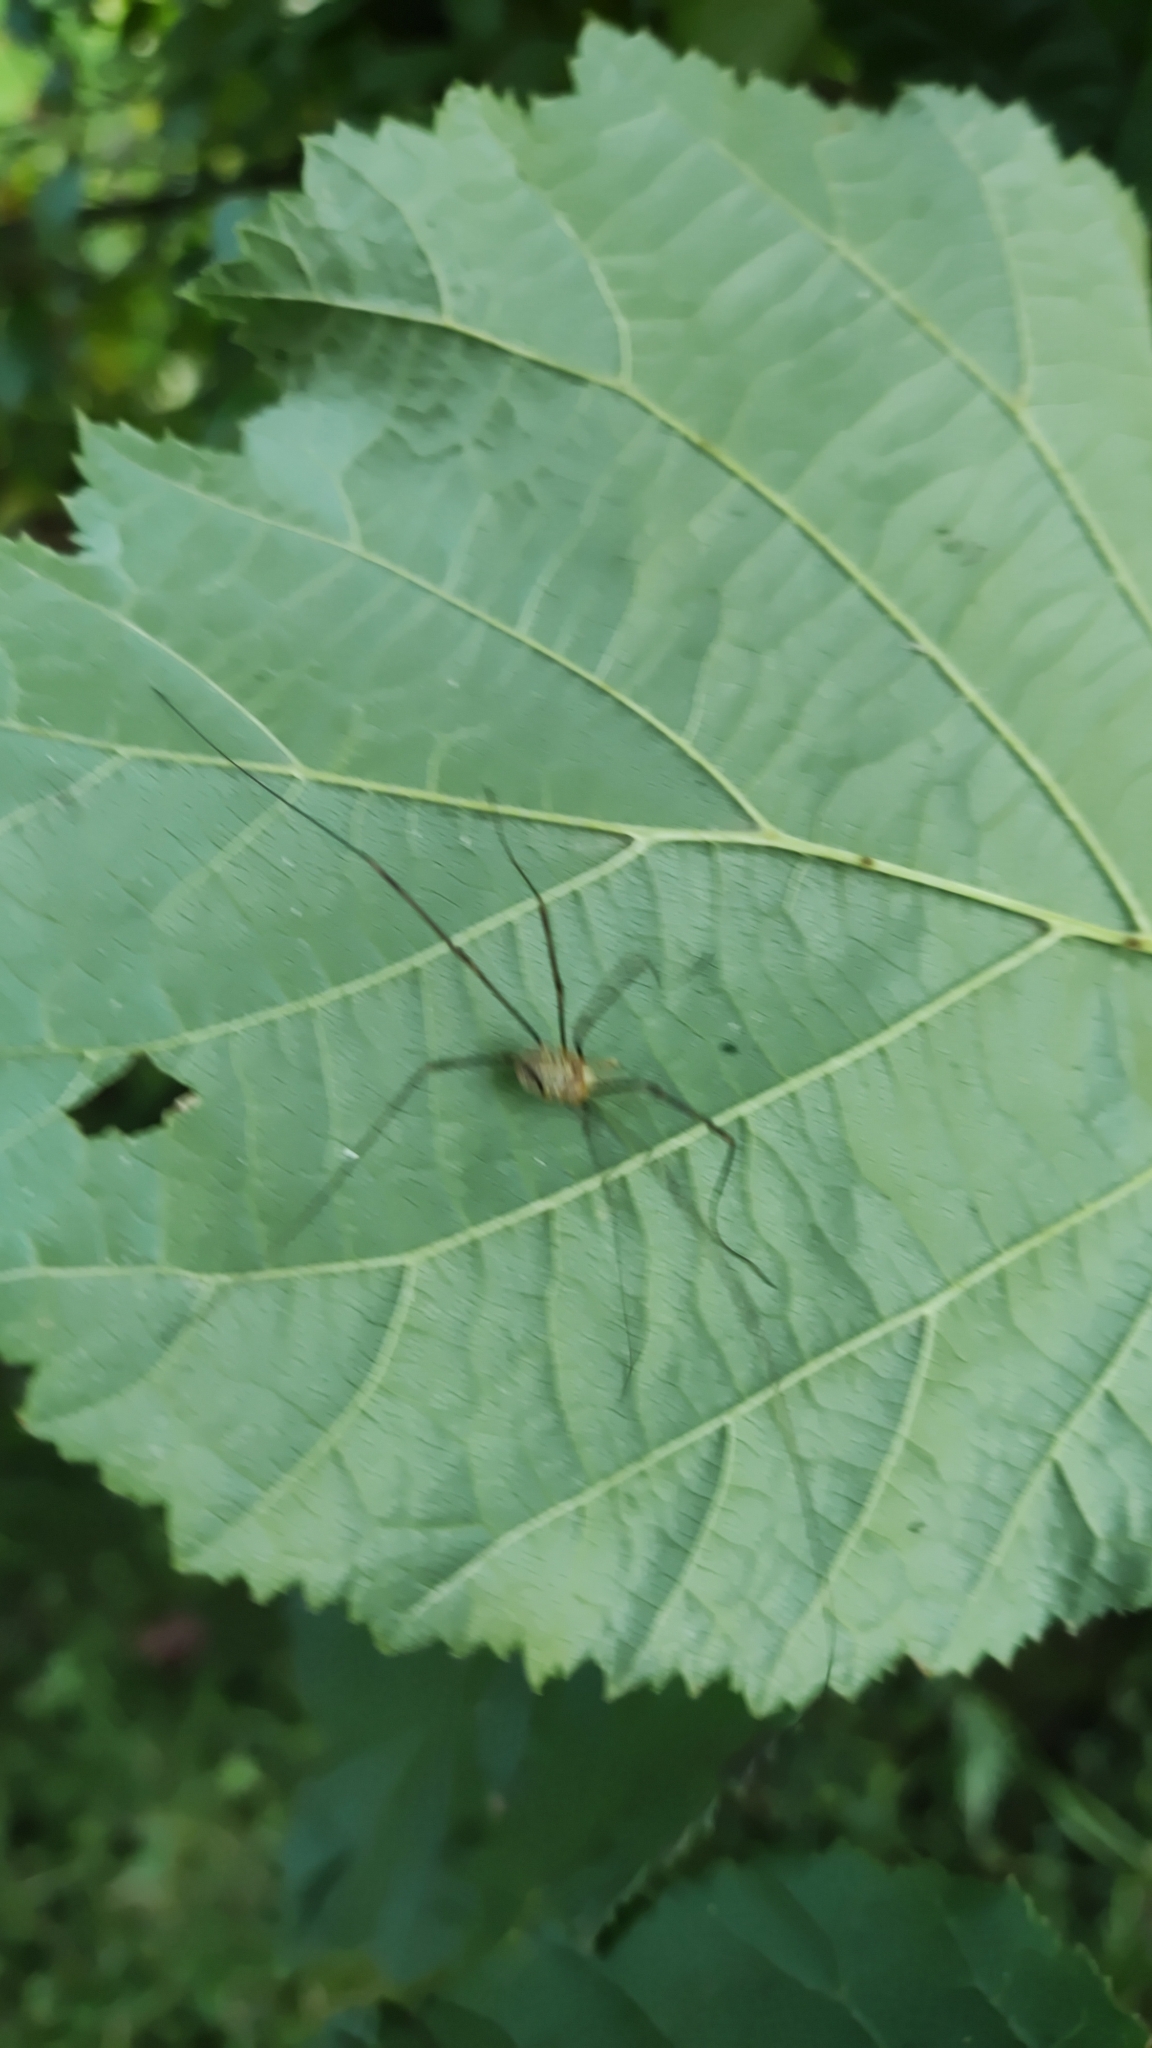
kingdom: Animalia
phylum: Arthropoda
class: Arachnida
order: Opiliones
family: Phalangiidae
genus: Opilio
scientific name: Opilio canestrinii
